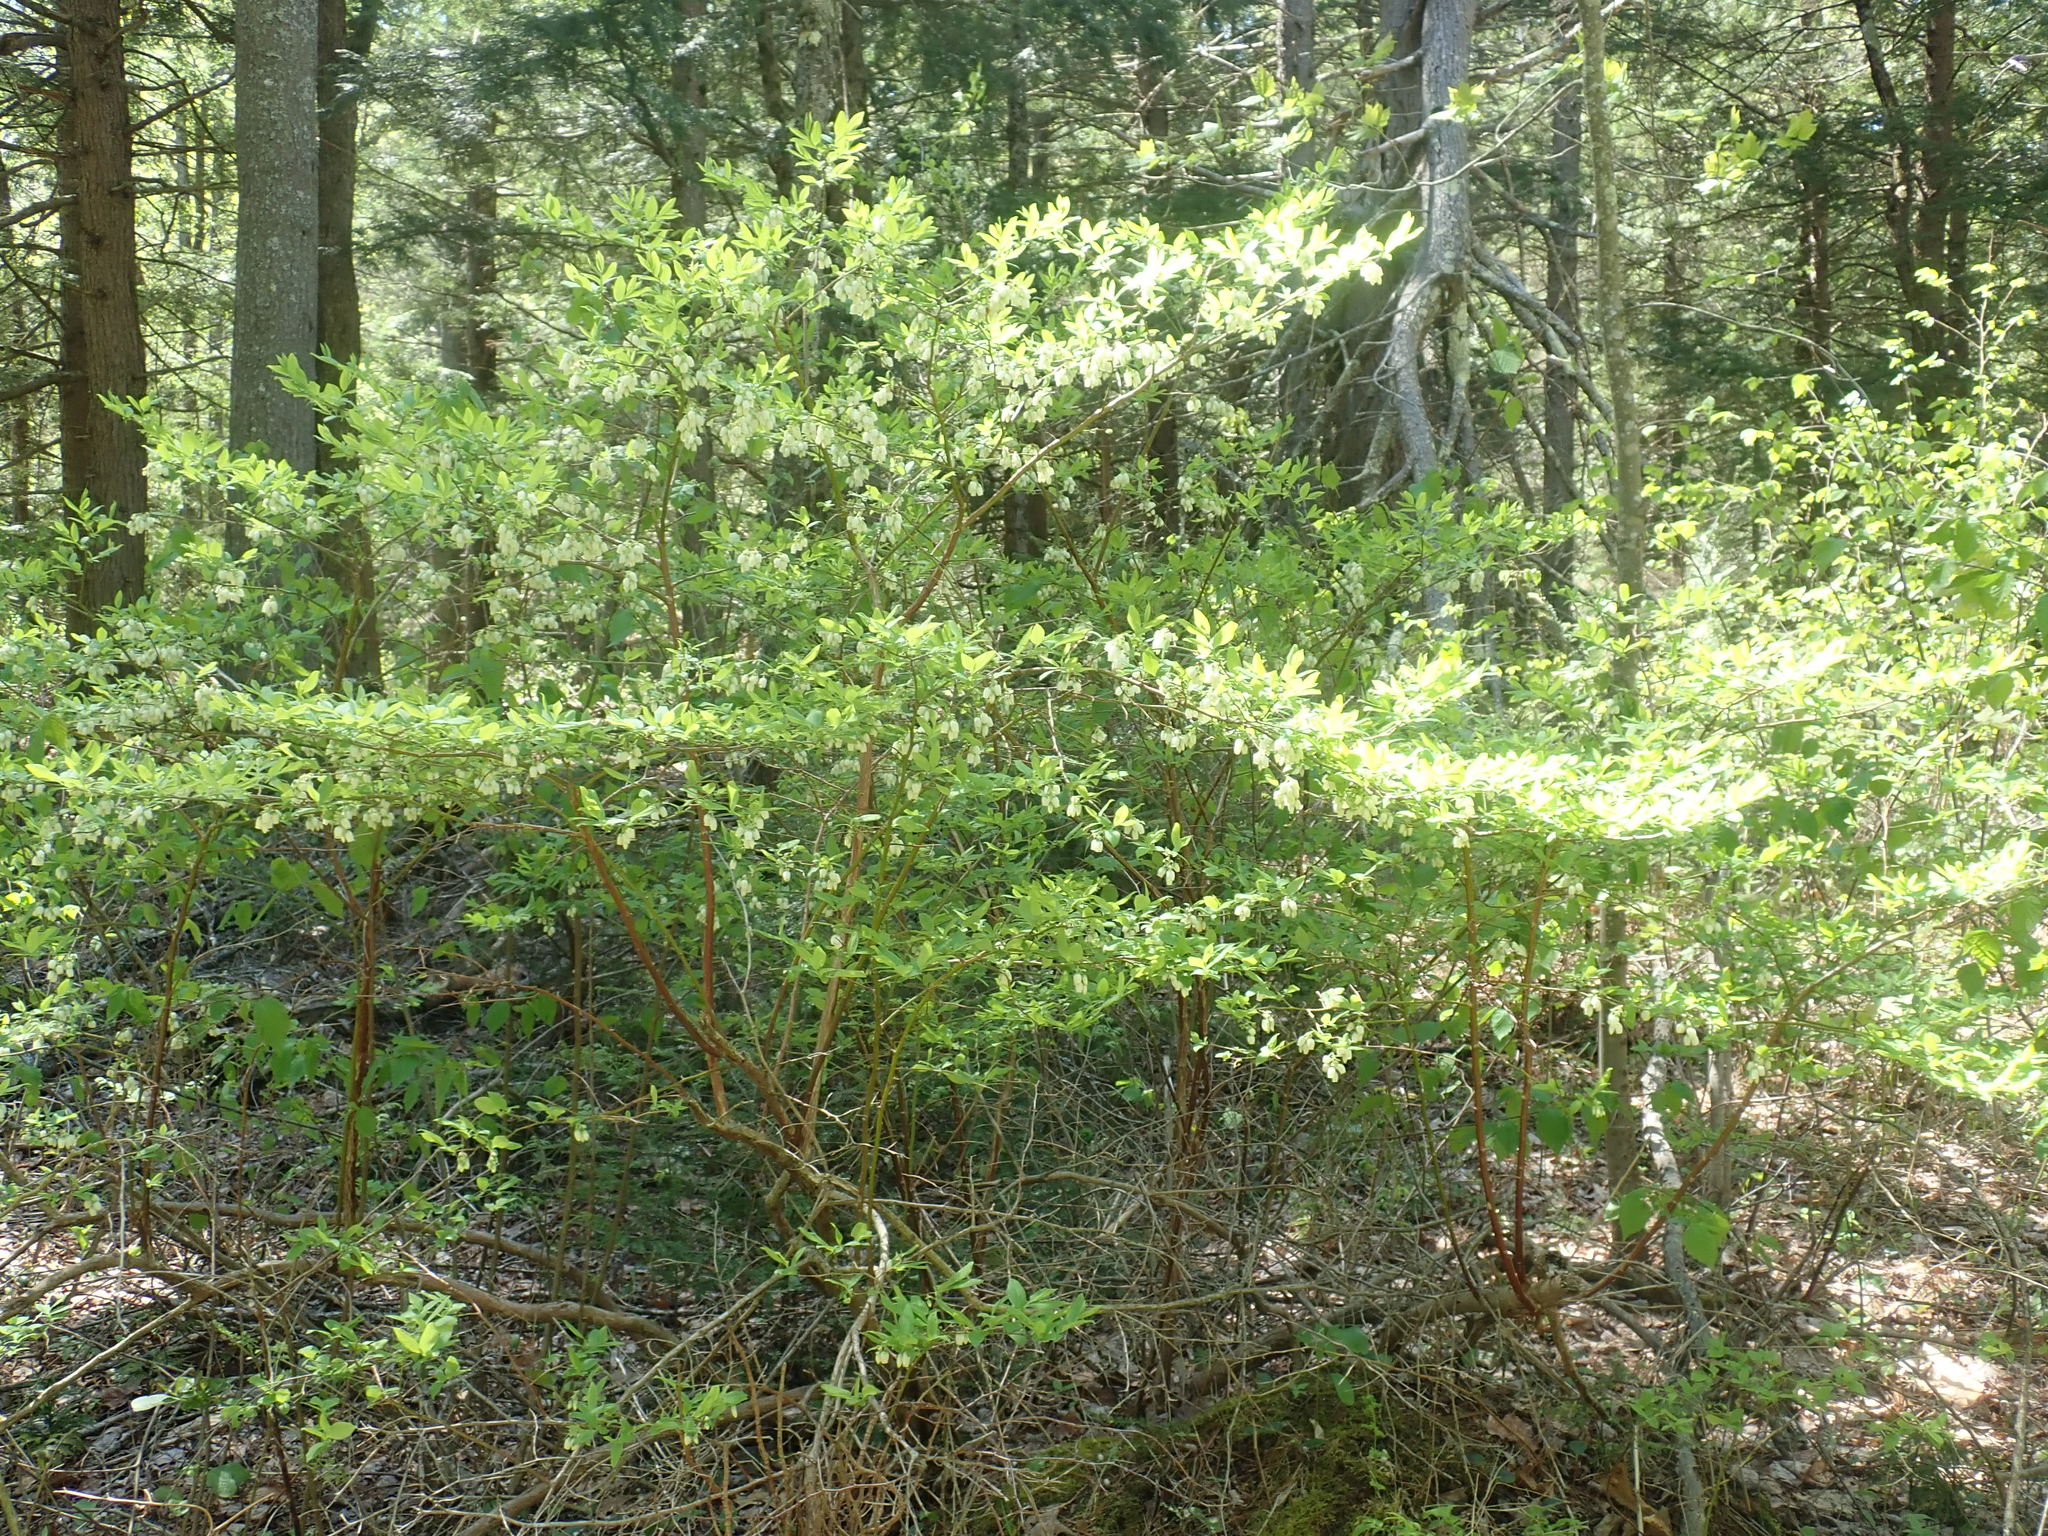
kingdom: Plantae
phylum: Tracheophyta
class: Magnoliopsida
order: Ericales
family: Ericaceae
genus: Vaccinium
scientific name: Vaccinium corymbosum
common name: Blueberry
